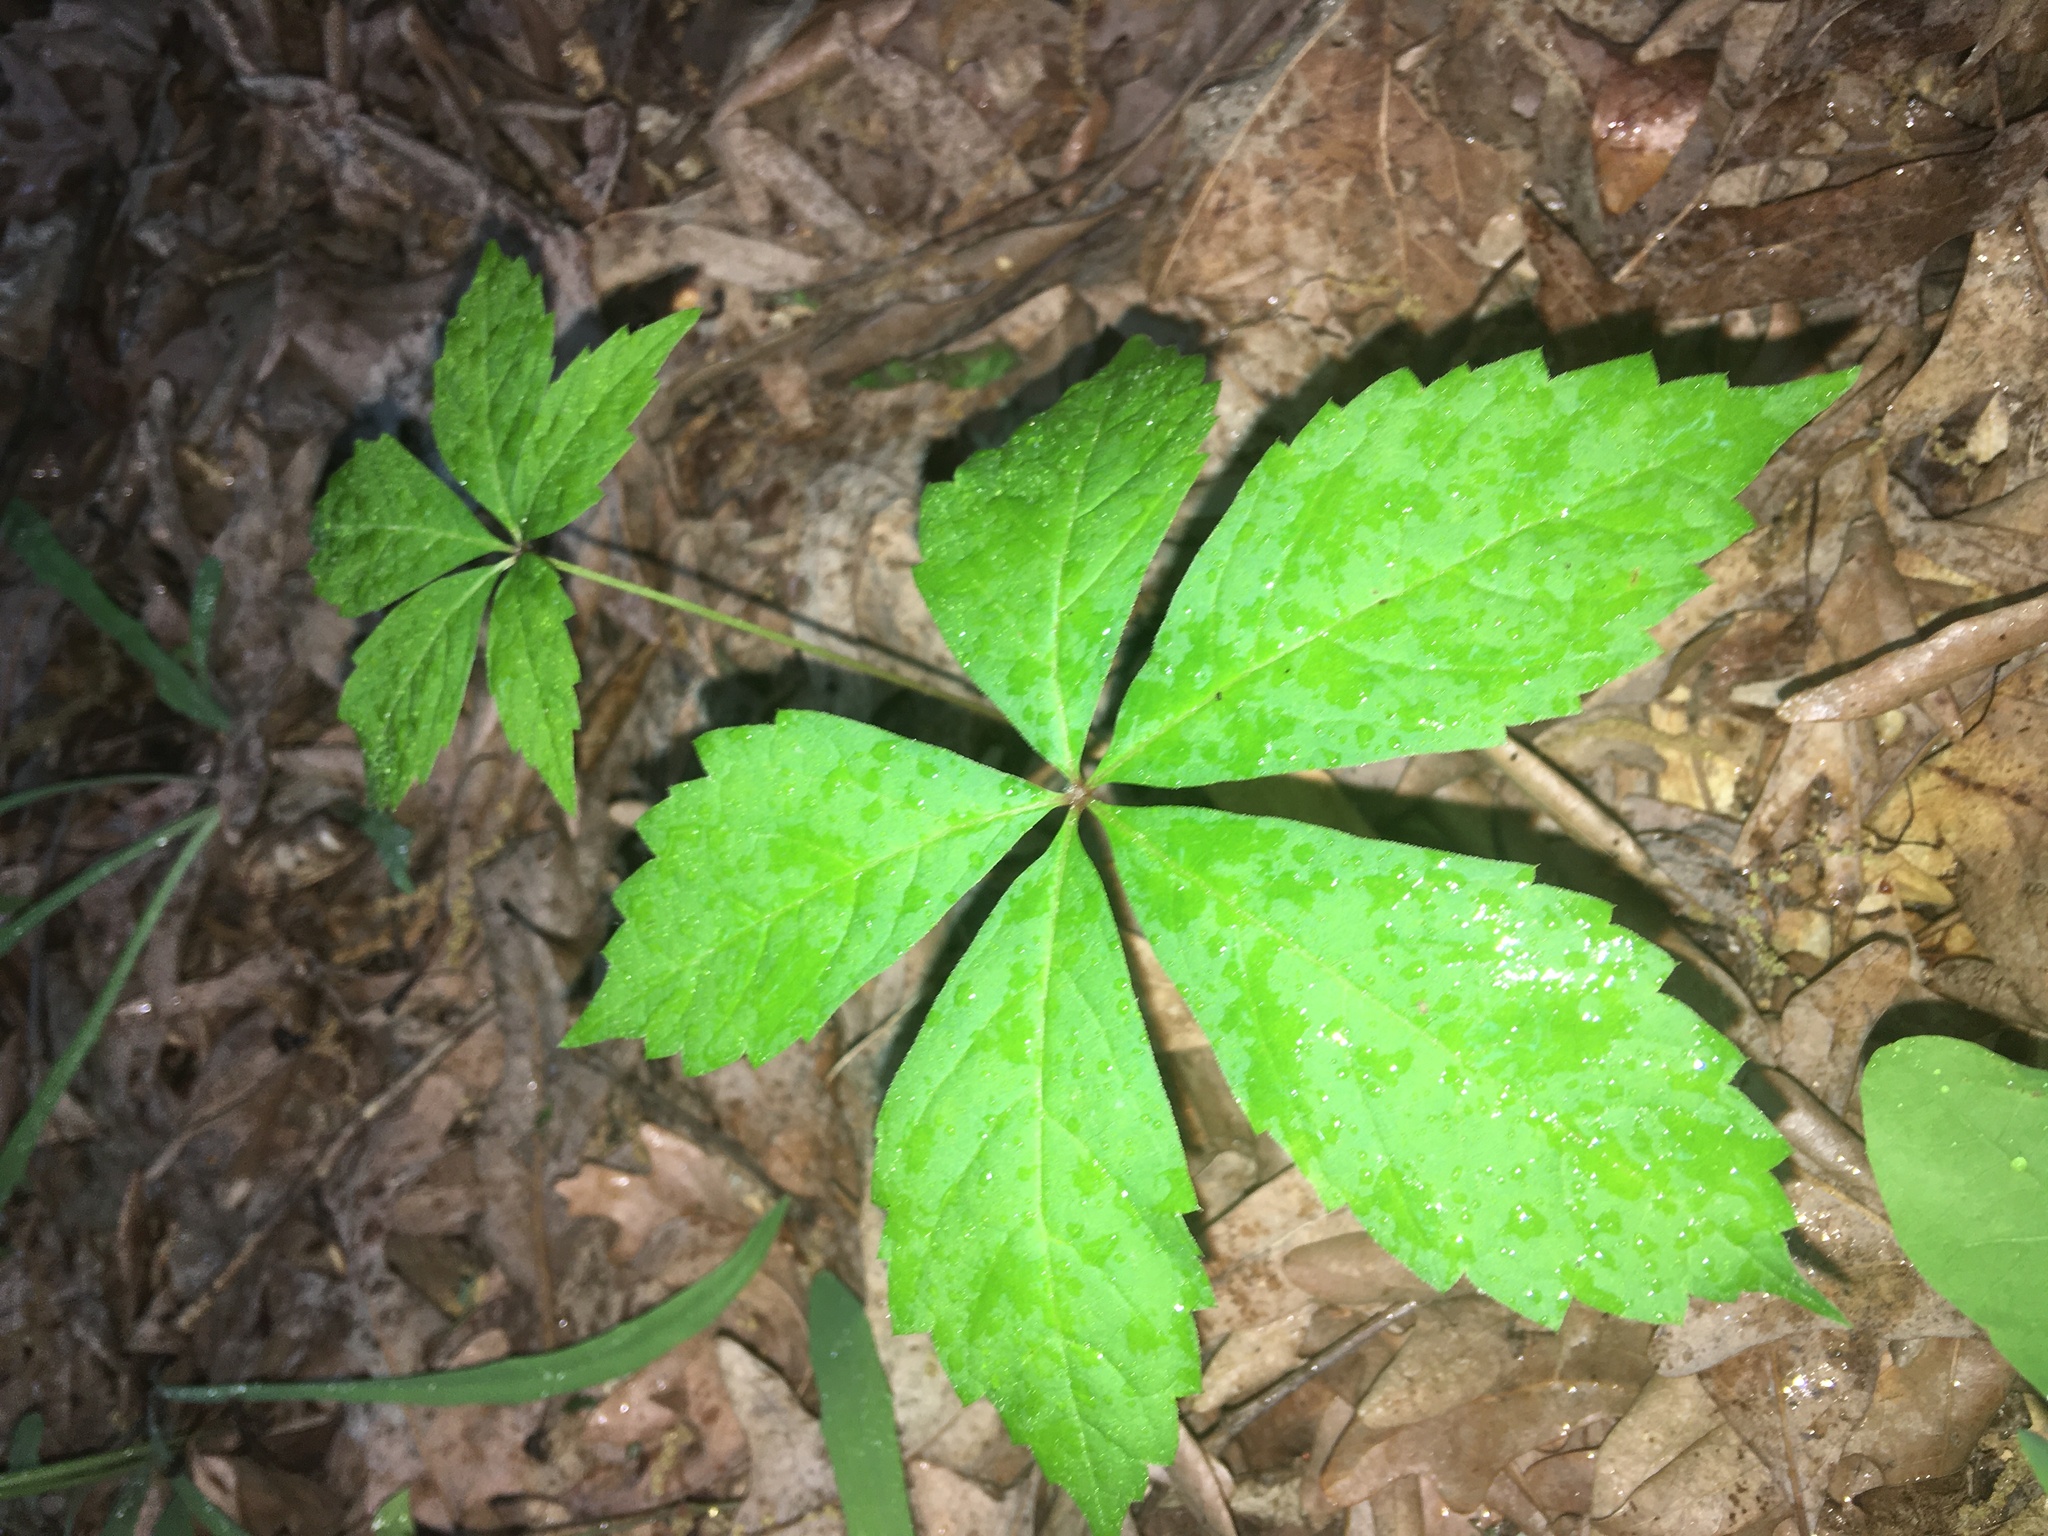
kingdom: Plantae
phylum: Tracheophyta
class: Magnoliopsida
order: Vitales
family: Vitaceae
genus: Parthenocissus
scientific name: Parthenocissus quinquefolia
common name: Virginia-creeper
